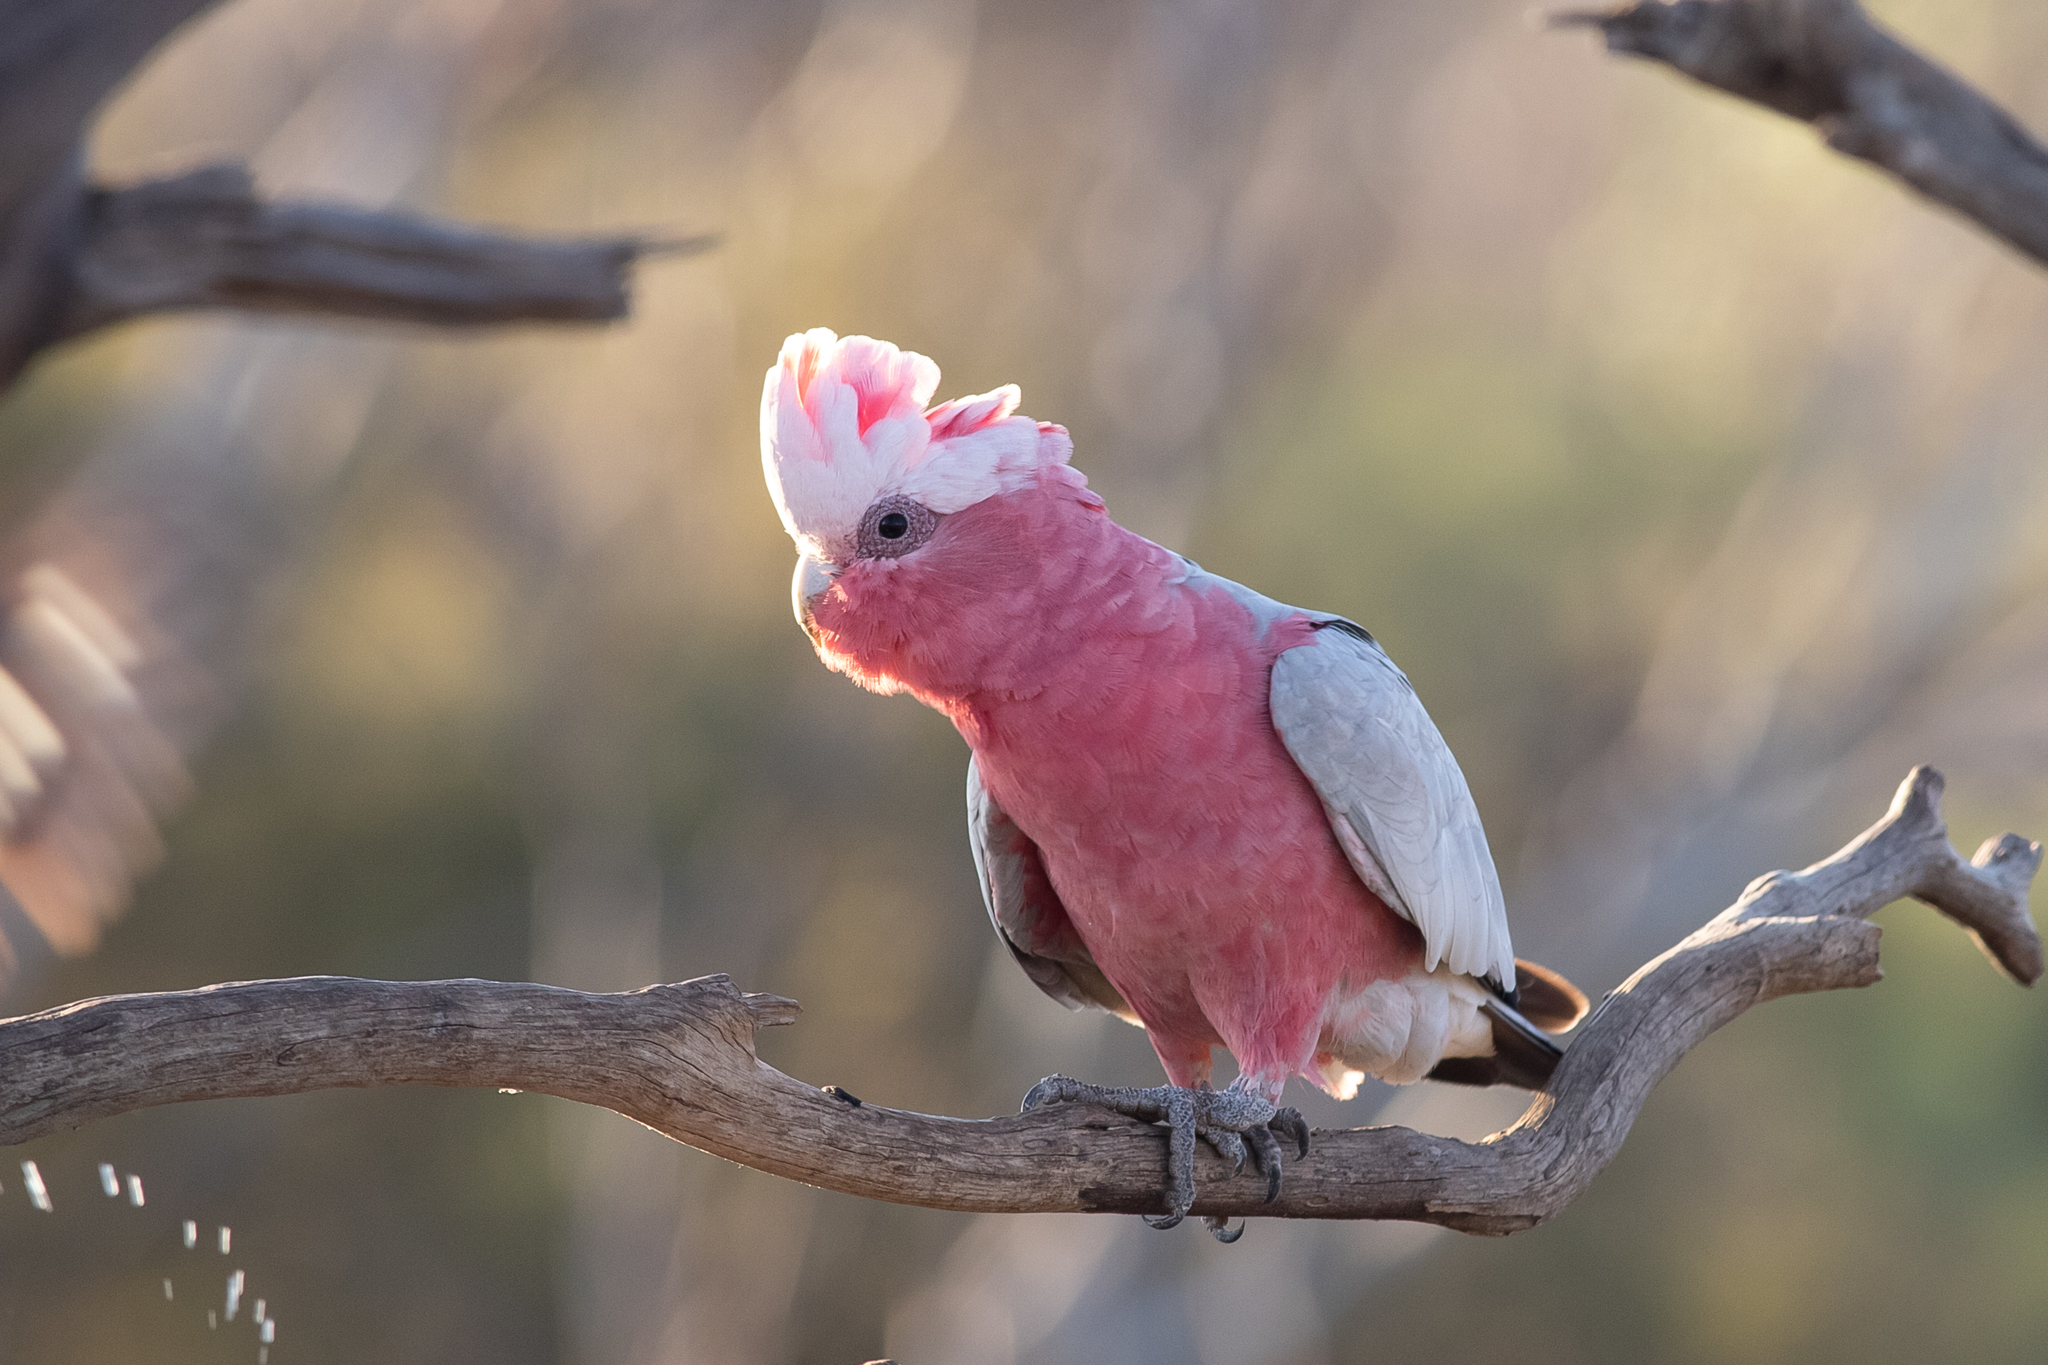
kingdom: Animalia
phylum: Chordata
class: Aves
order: Psittaciformes
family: Psittacidae
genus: Eolophus
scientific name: Eolophus roseicapilla
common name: Galah
